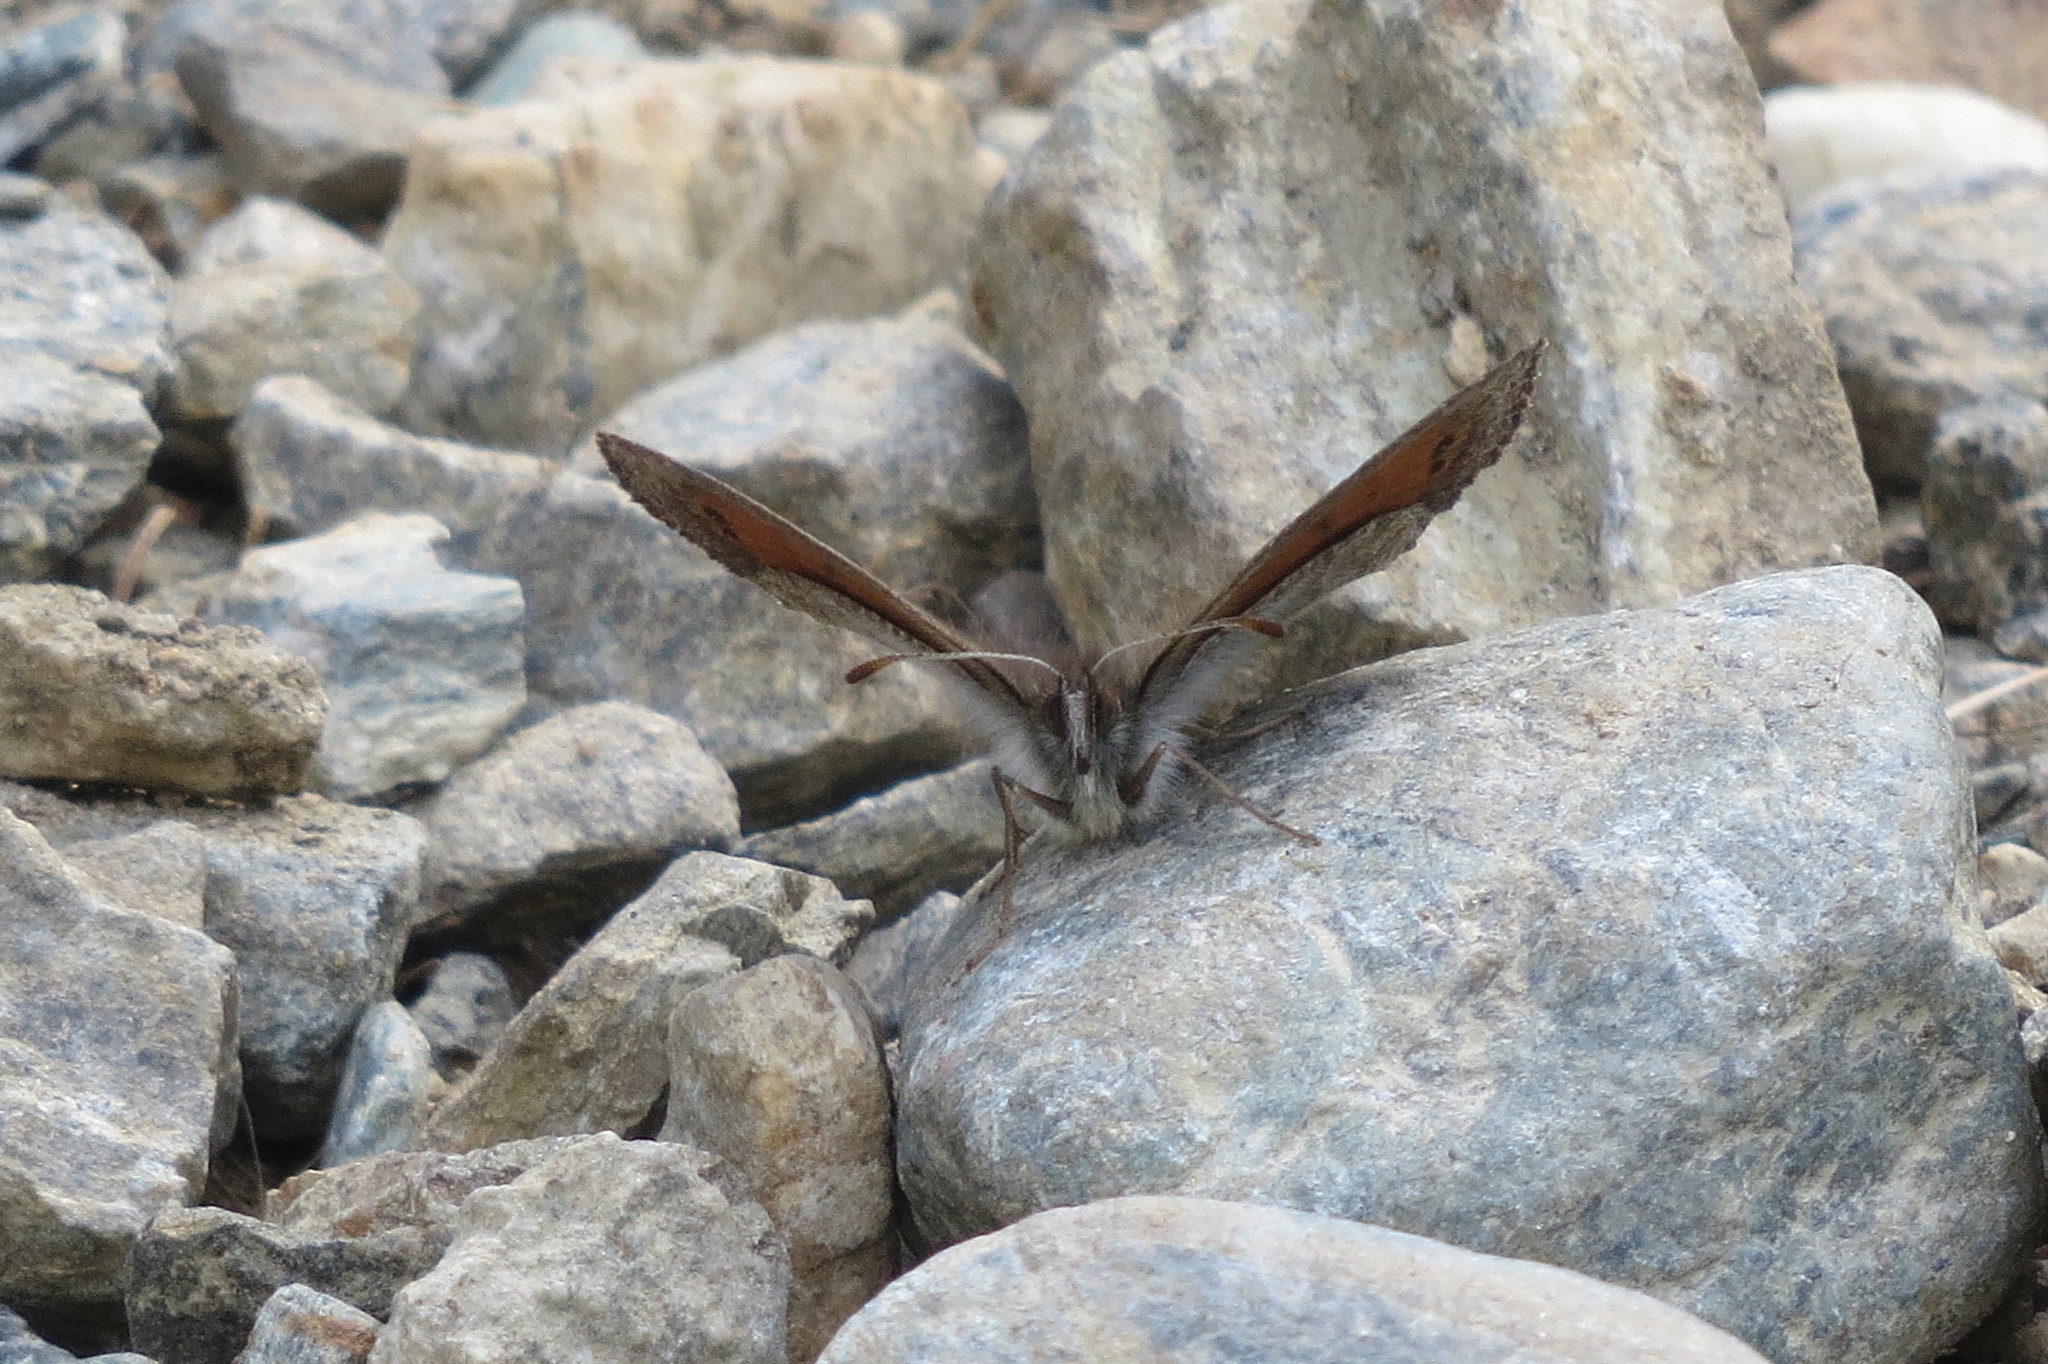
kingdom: Animalia
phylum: Arthropoda
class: Insecta
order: Lepidoptera
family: Nymphalidae
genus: Erebia
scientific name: Erebia tyndarus
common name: Swiss brassy ringlet
